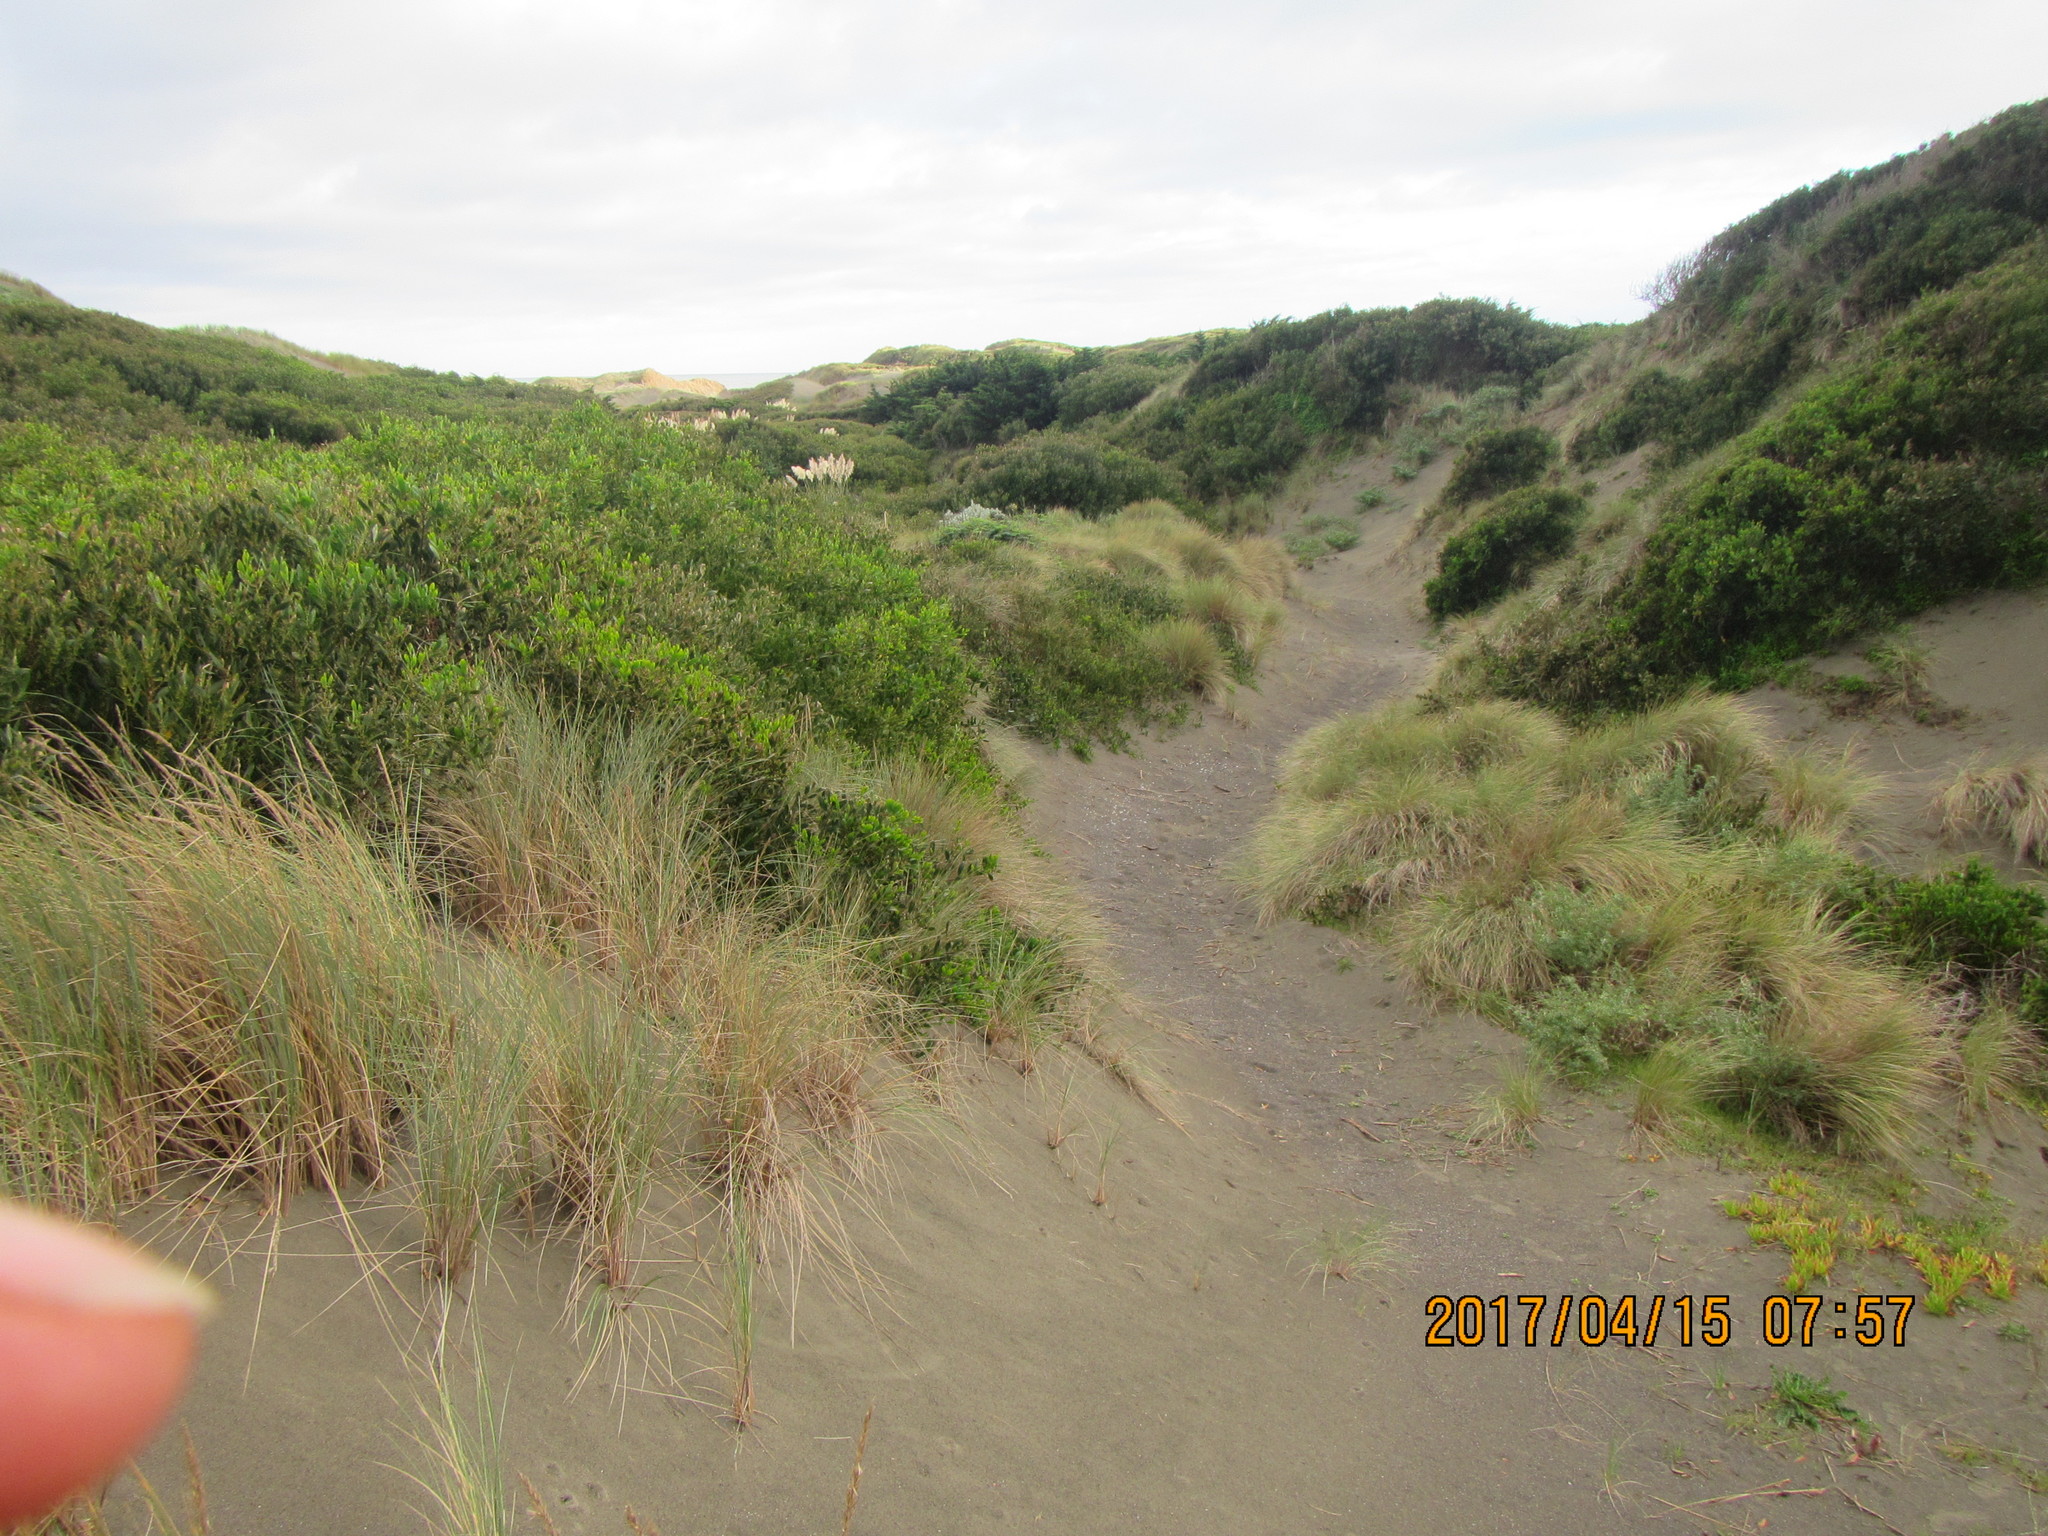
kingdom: Plantae
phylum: Tracheophyta
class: Magnoliopsida
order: Fabales
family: Fabaceae
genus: Acacia
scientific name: Acacia longifolia
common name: Sydney golden wattle
